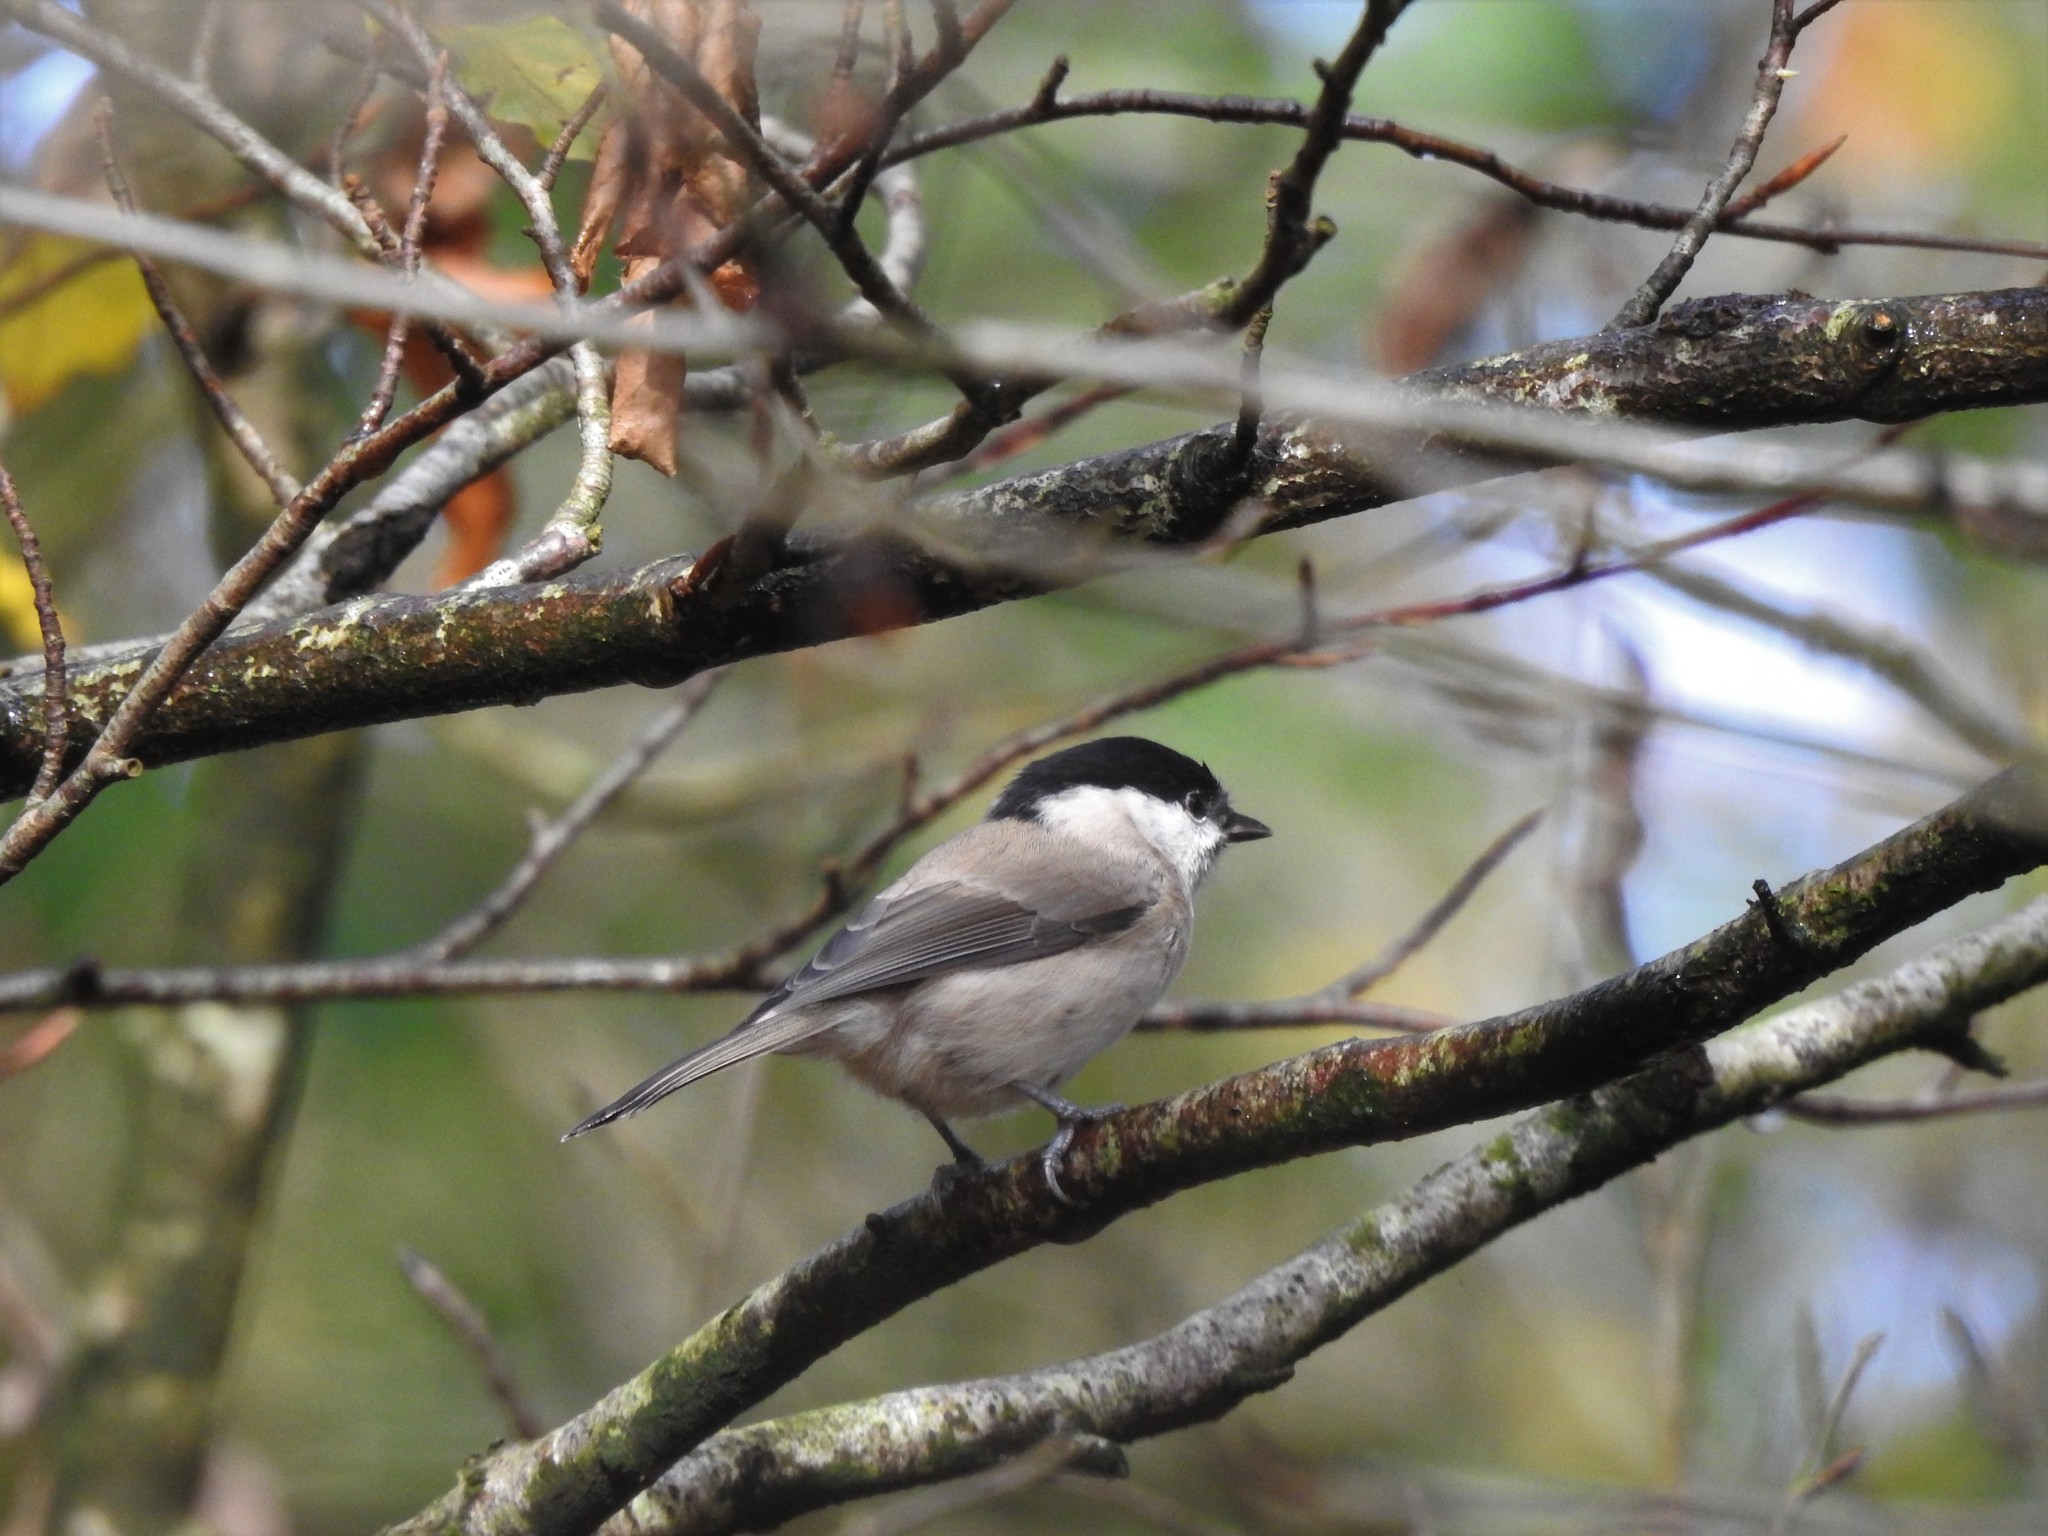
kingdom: Animalia
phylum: Chordata
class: Aves
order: Passeriformes
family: Paridae
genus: Poecile
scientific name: Poecile palustris
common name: Marsh tit
